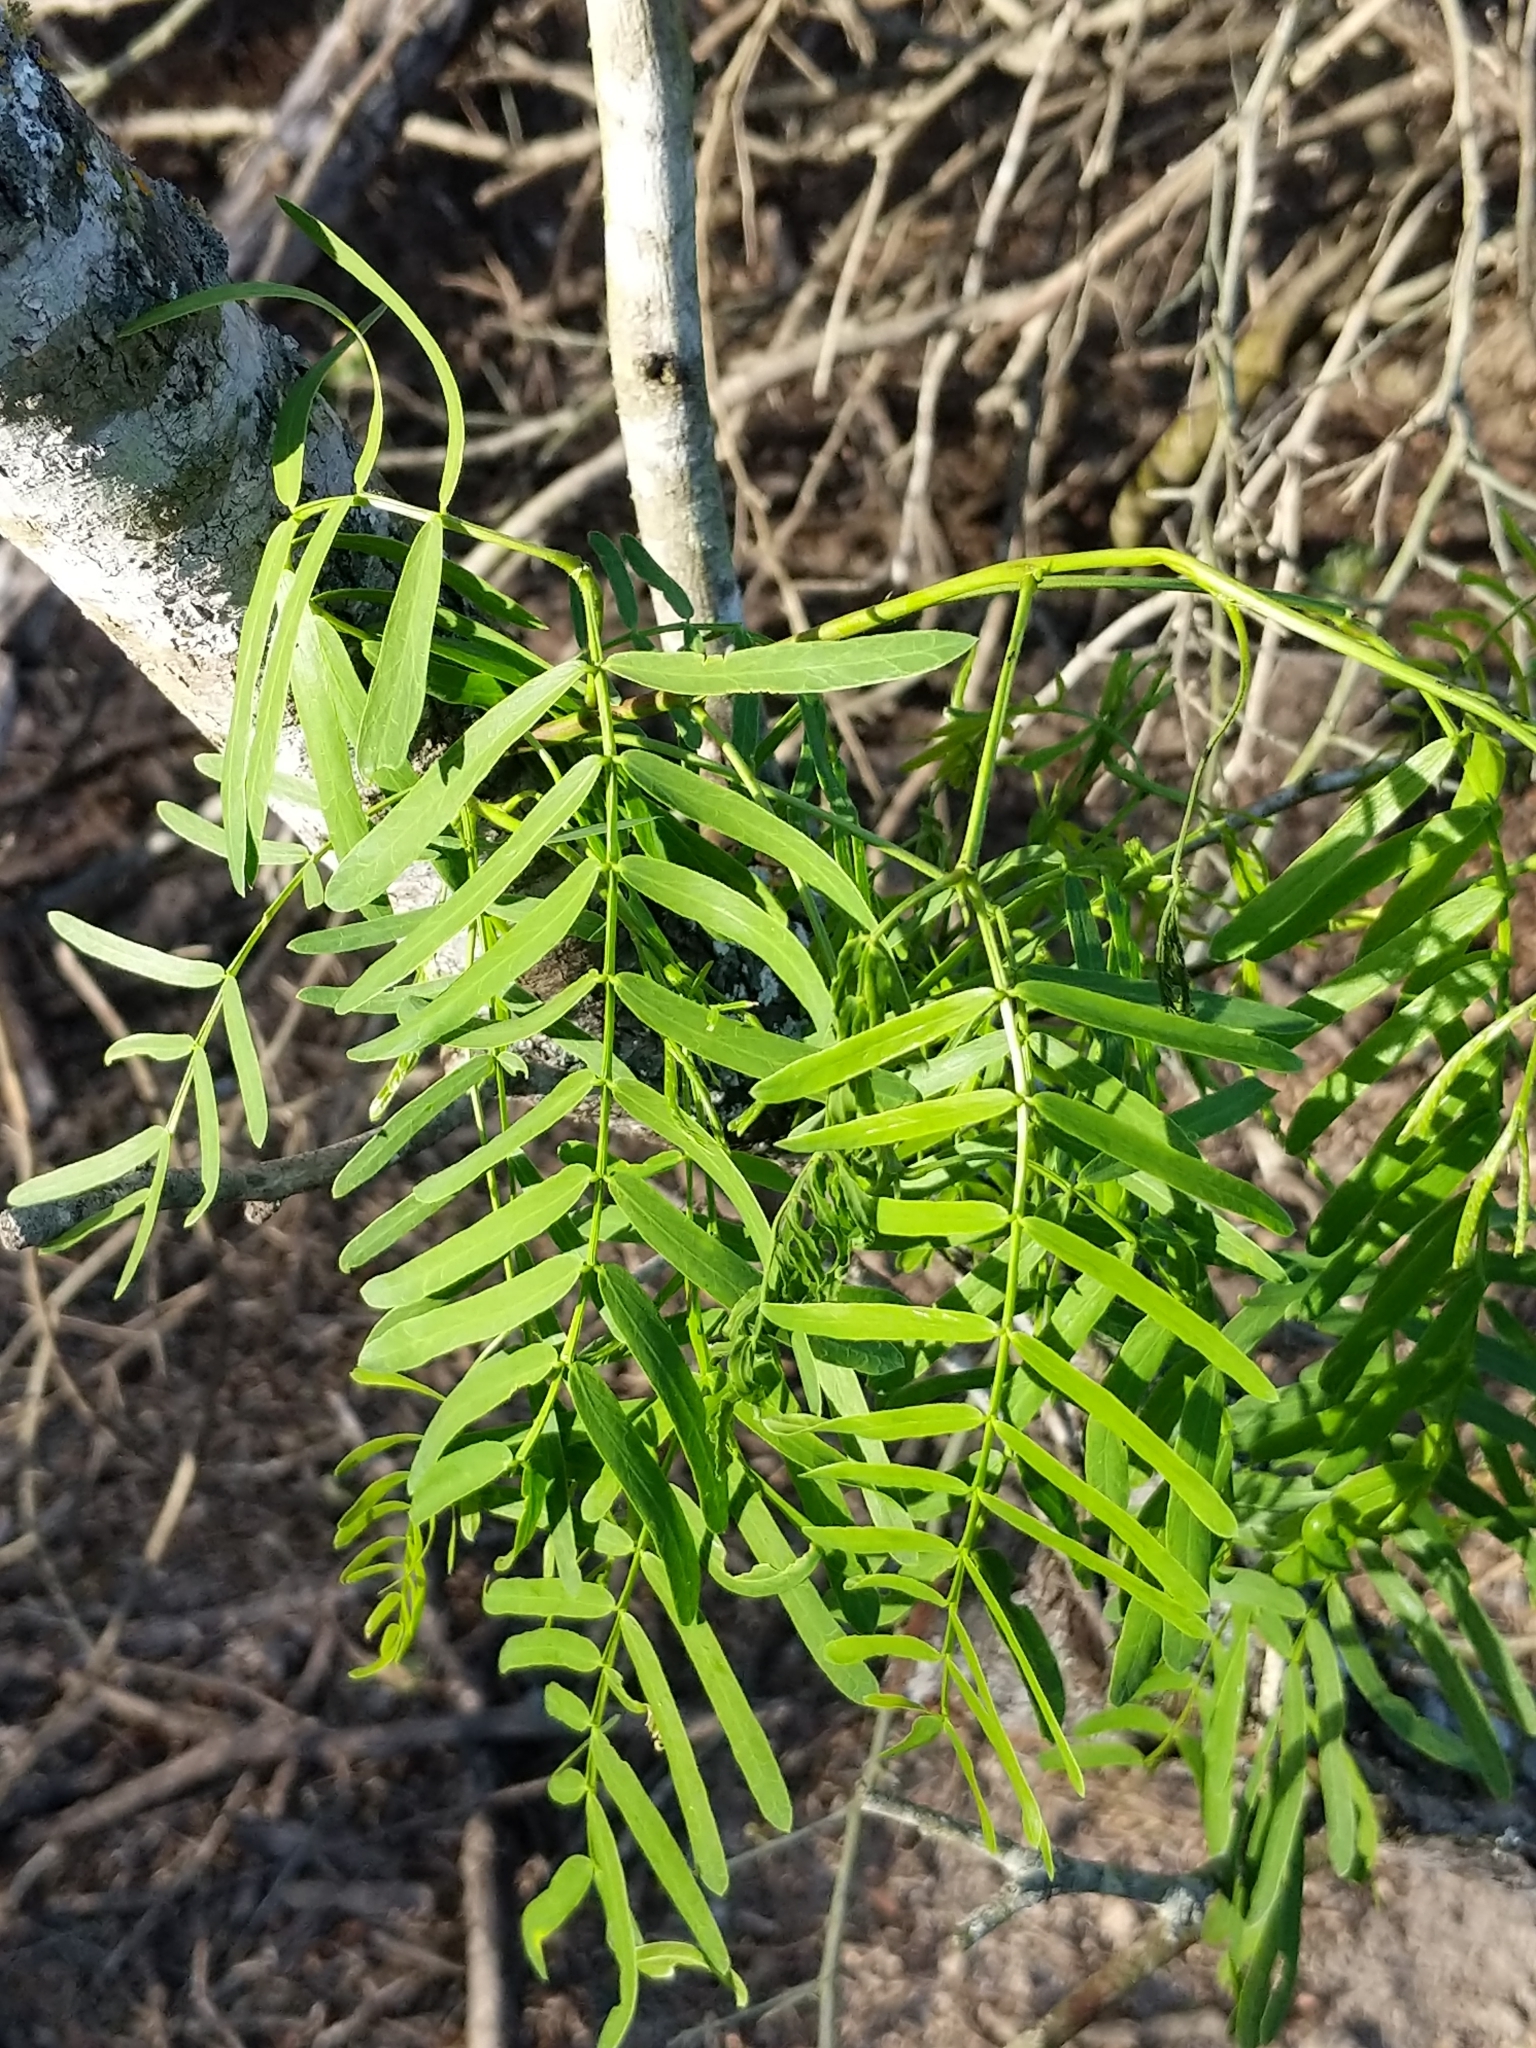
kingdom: Plantae
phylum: Tracheophyta
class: Magnoliopsida
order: Fabales
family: Fabaceae
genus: Prosopis
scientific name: Prosopis glandulosa
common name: Honey mesquite
